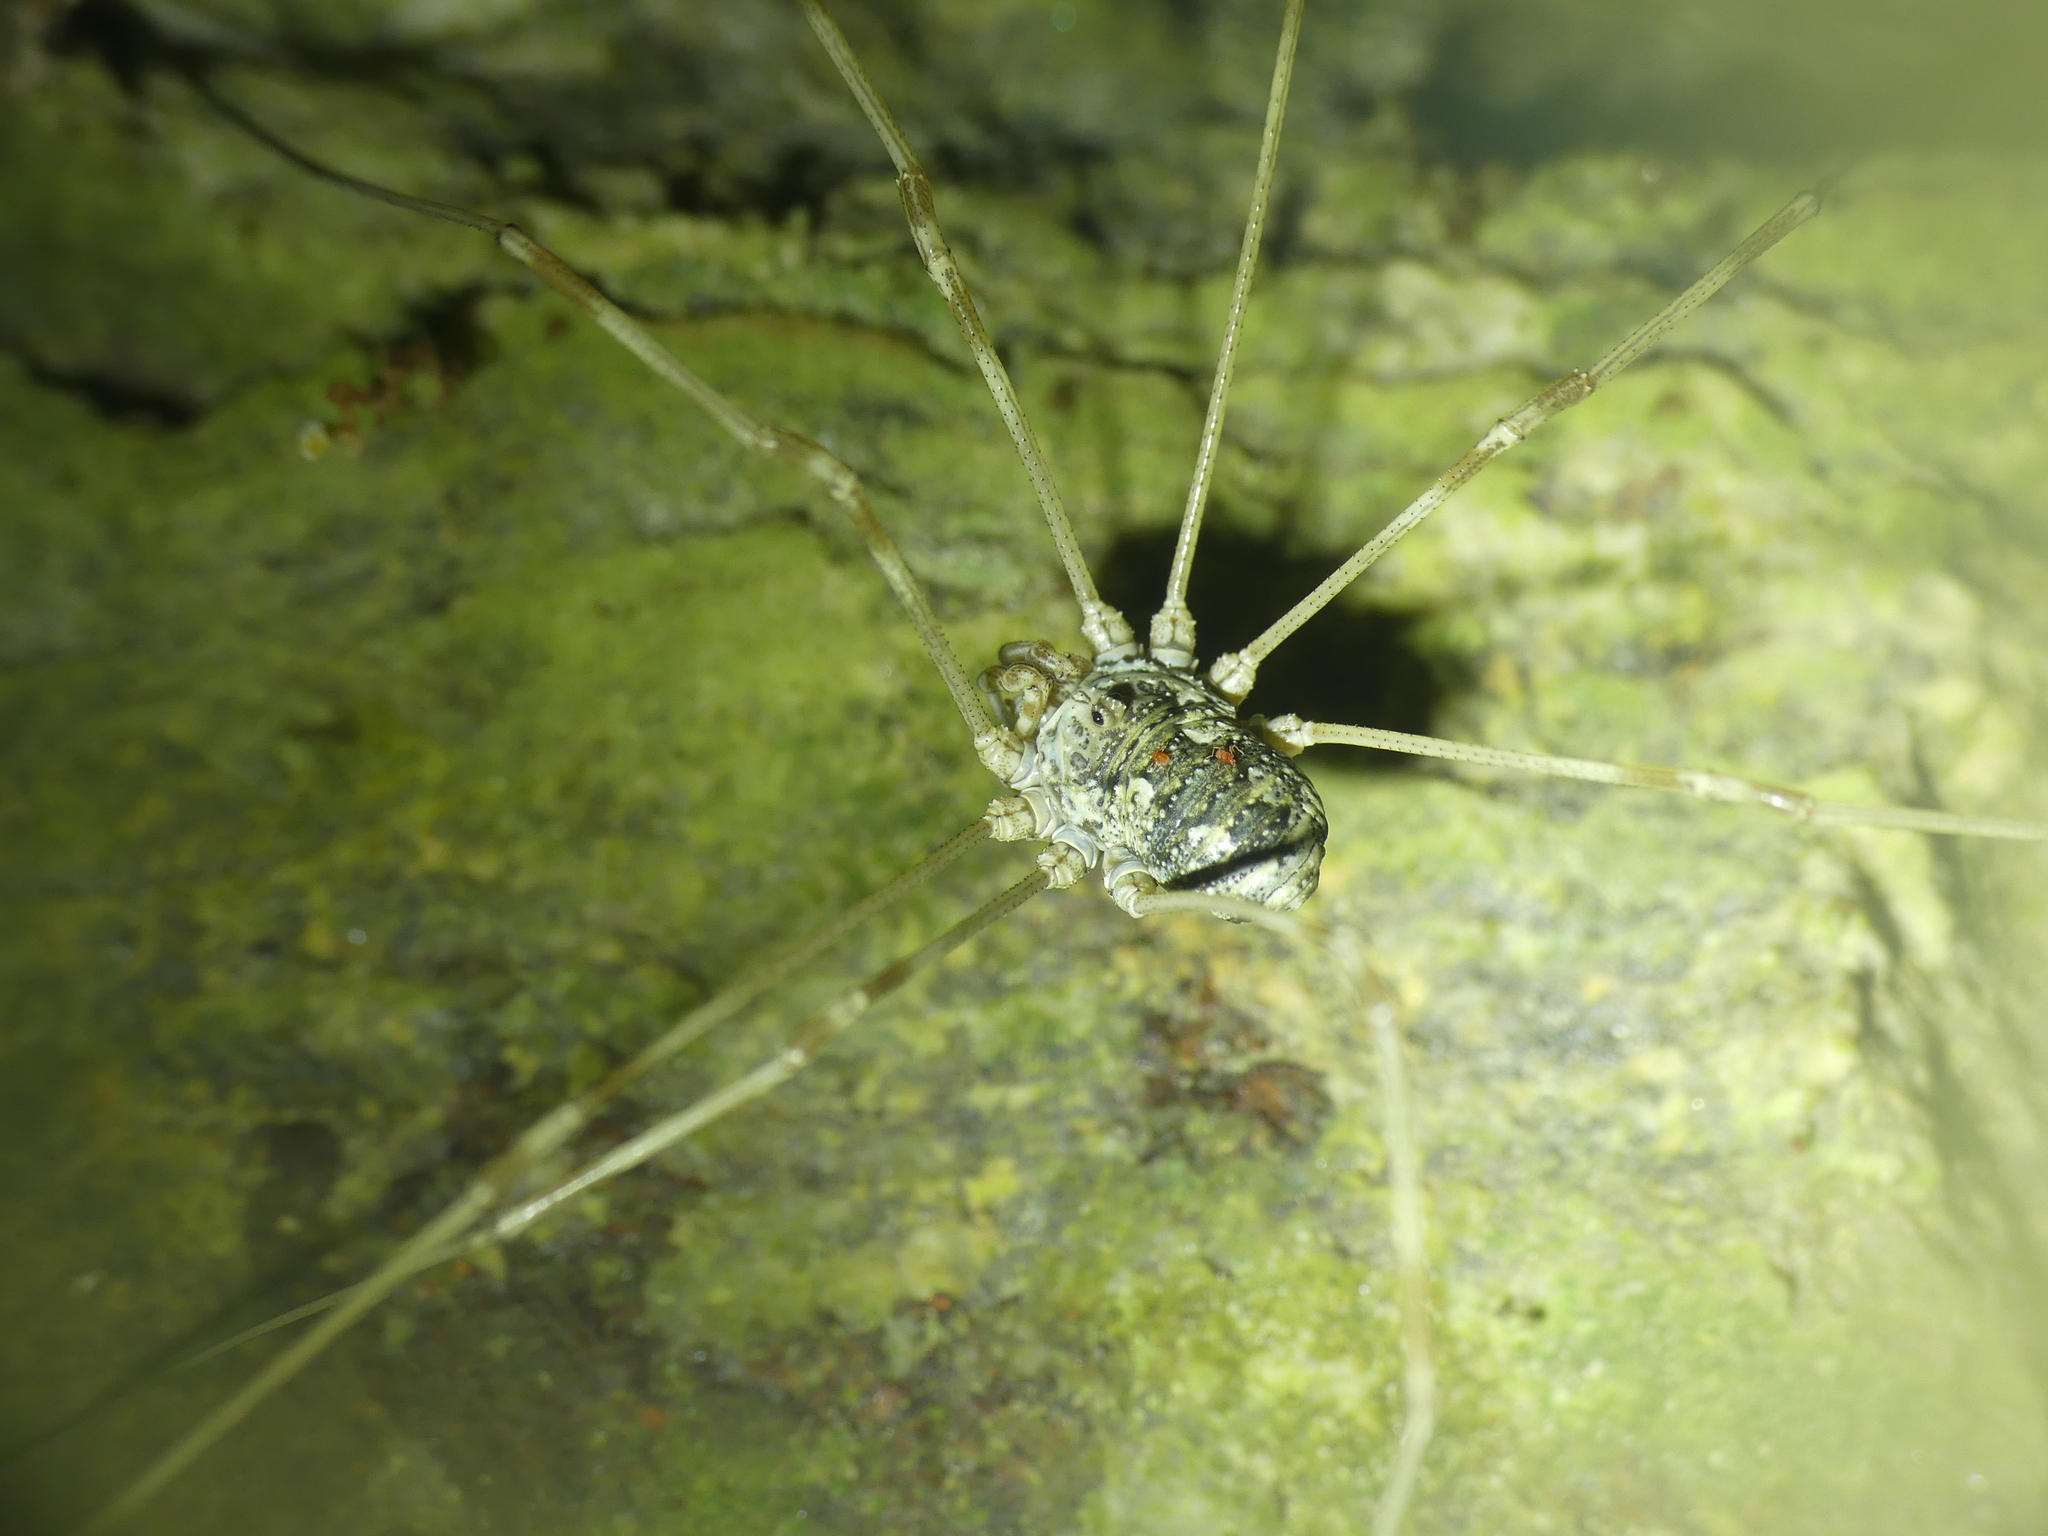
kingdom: Animalia
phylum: Arthropoda
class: Arachnida
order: Opiliones
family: Phalangiidae
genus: Mitopus
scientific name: Mitopus glacialis
